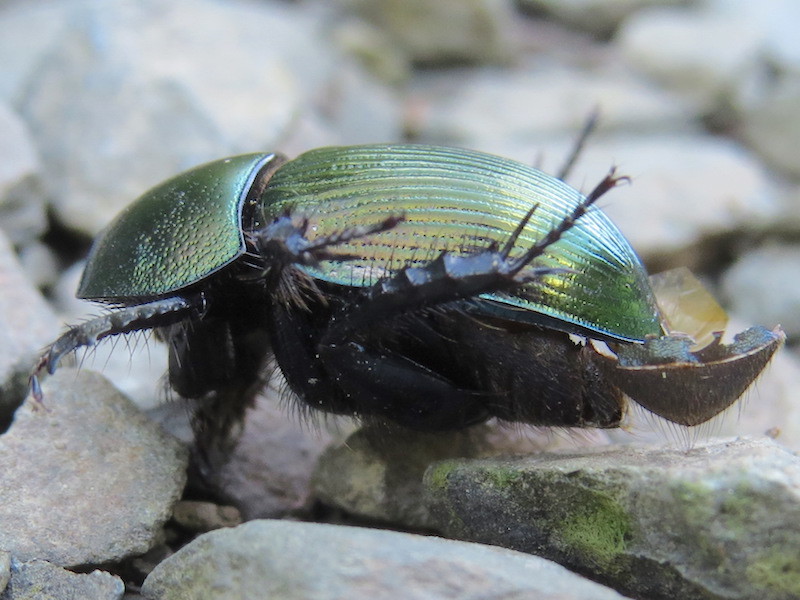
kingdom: Animalia
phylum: Arthropoda
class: Insecta
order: Coleoptera
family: Geotrupidae
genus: Geotrupes
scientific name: Geotrupes splendidus
